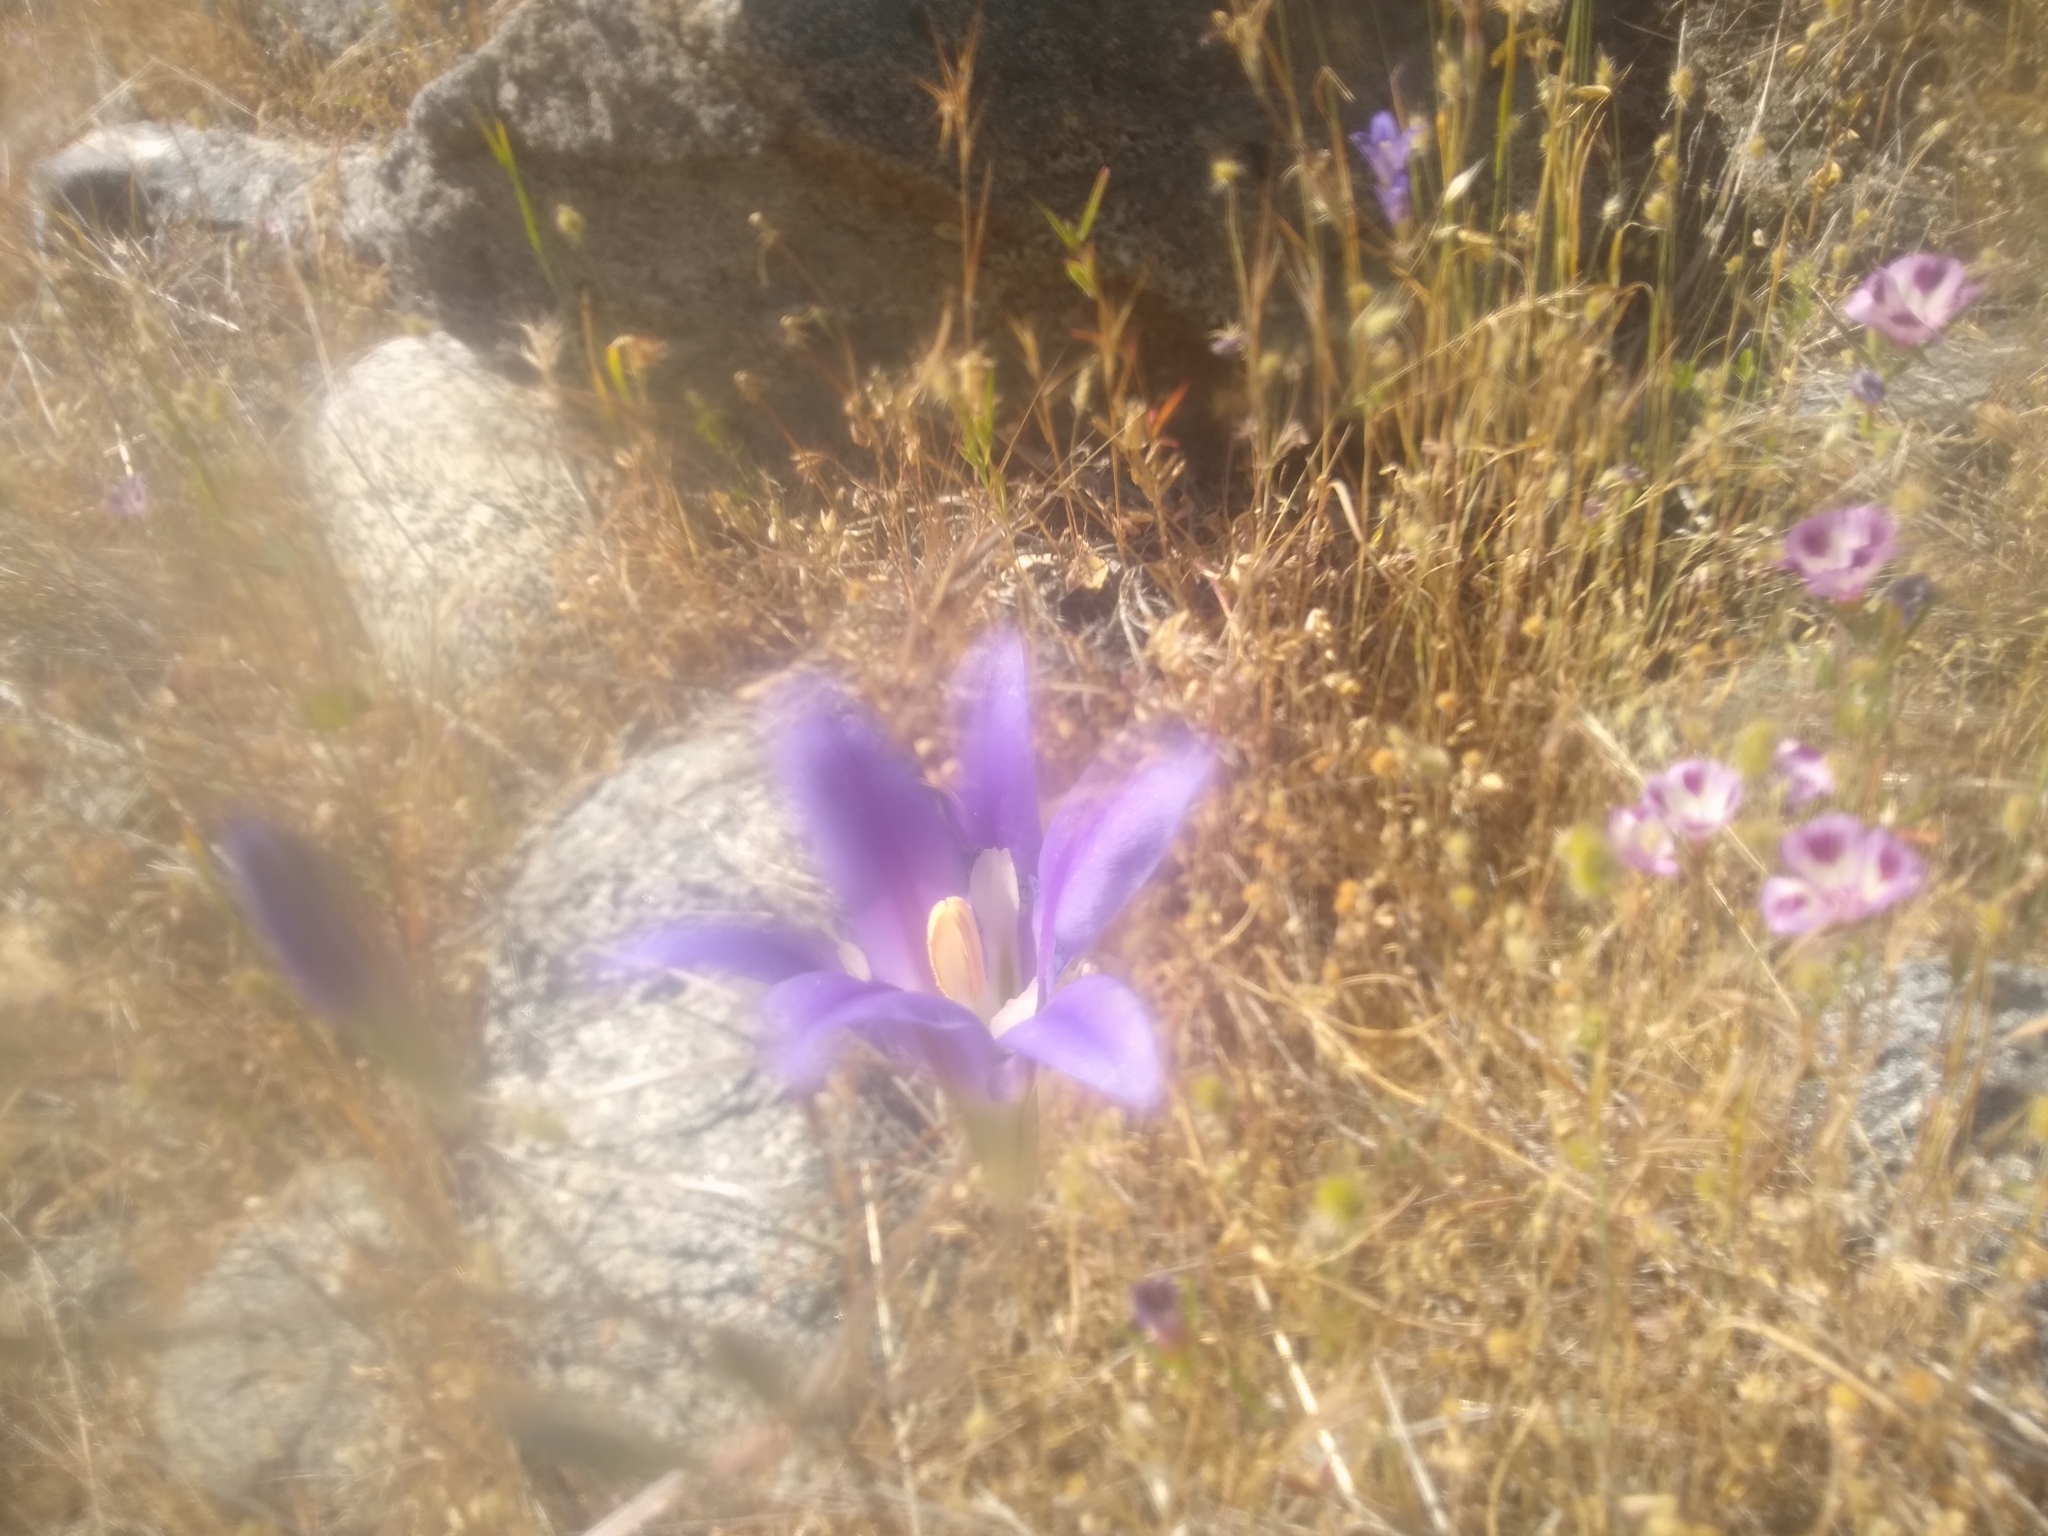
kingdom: Plantae
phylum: Tracheophyta
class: Liliopsida
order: Asparagales
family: Asparagaceae
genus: Brodiaea
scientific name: Brodiaea elegans
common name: Elegant cluster-lily
